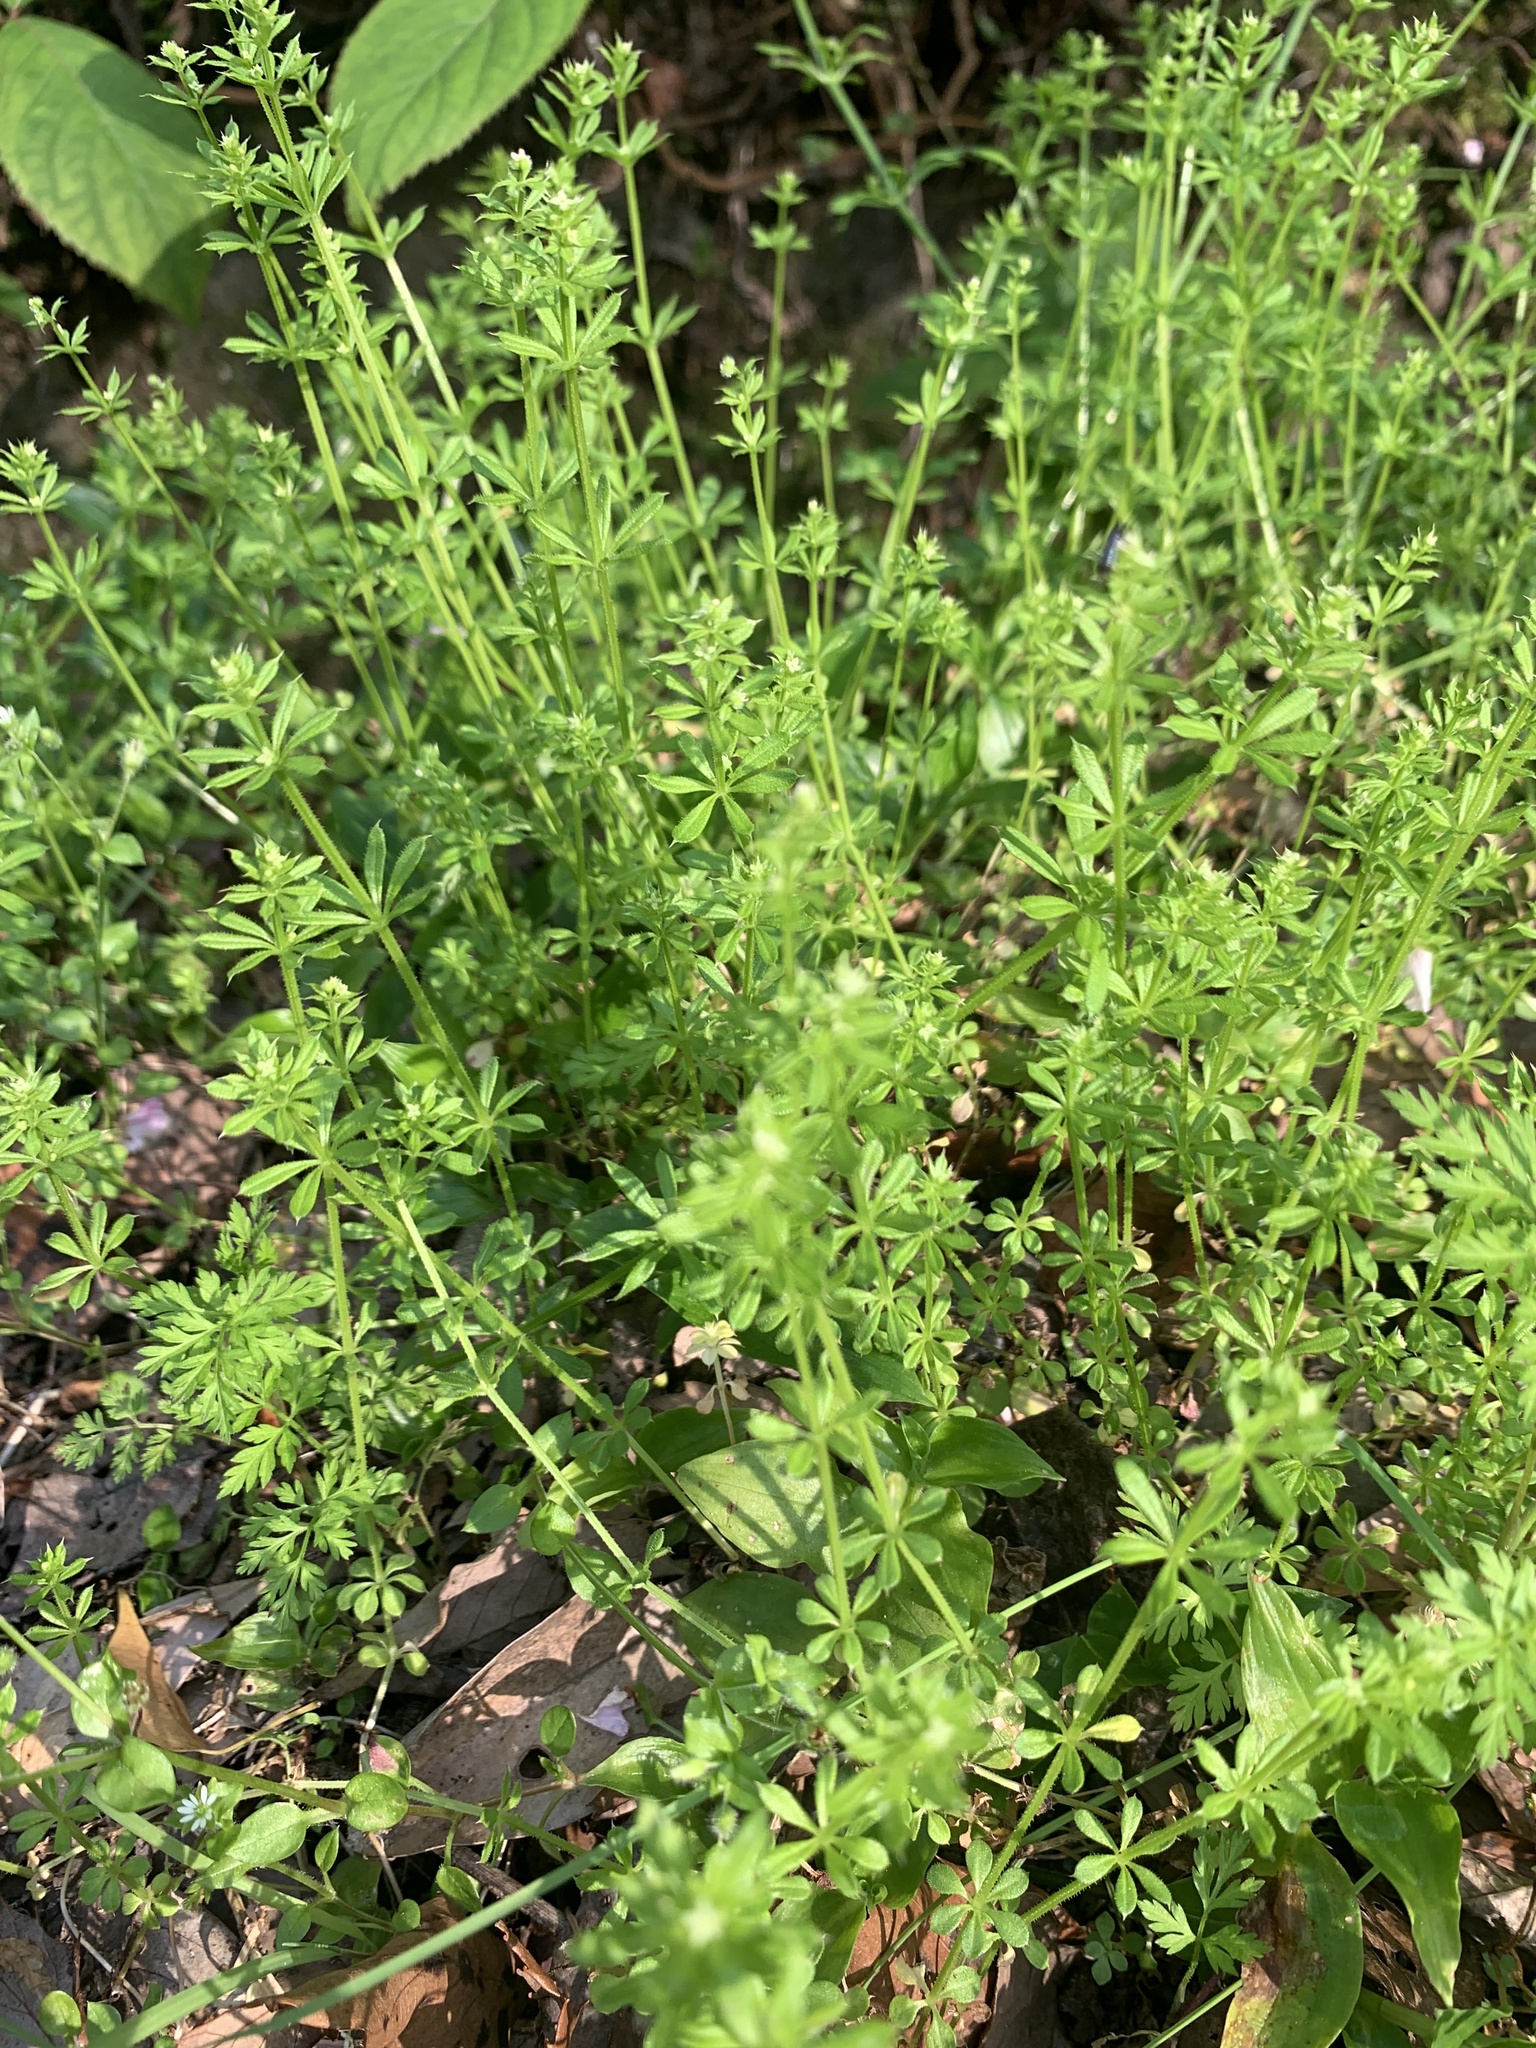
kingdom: Plantae
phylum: Tracheophyta
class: Magnoliopsida
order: Gentianales
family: Rubiaceae
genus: Galium
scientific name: Galium
